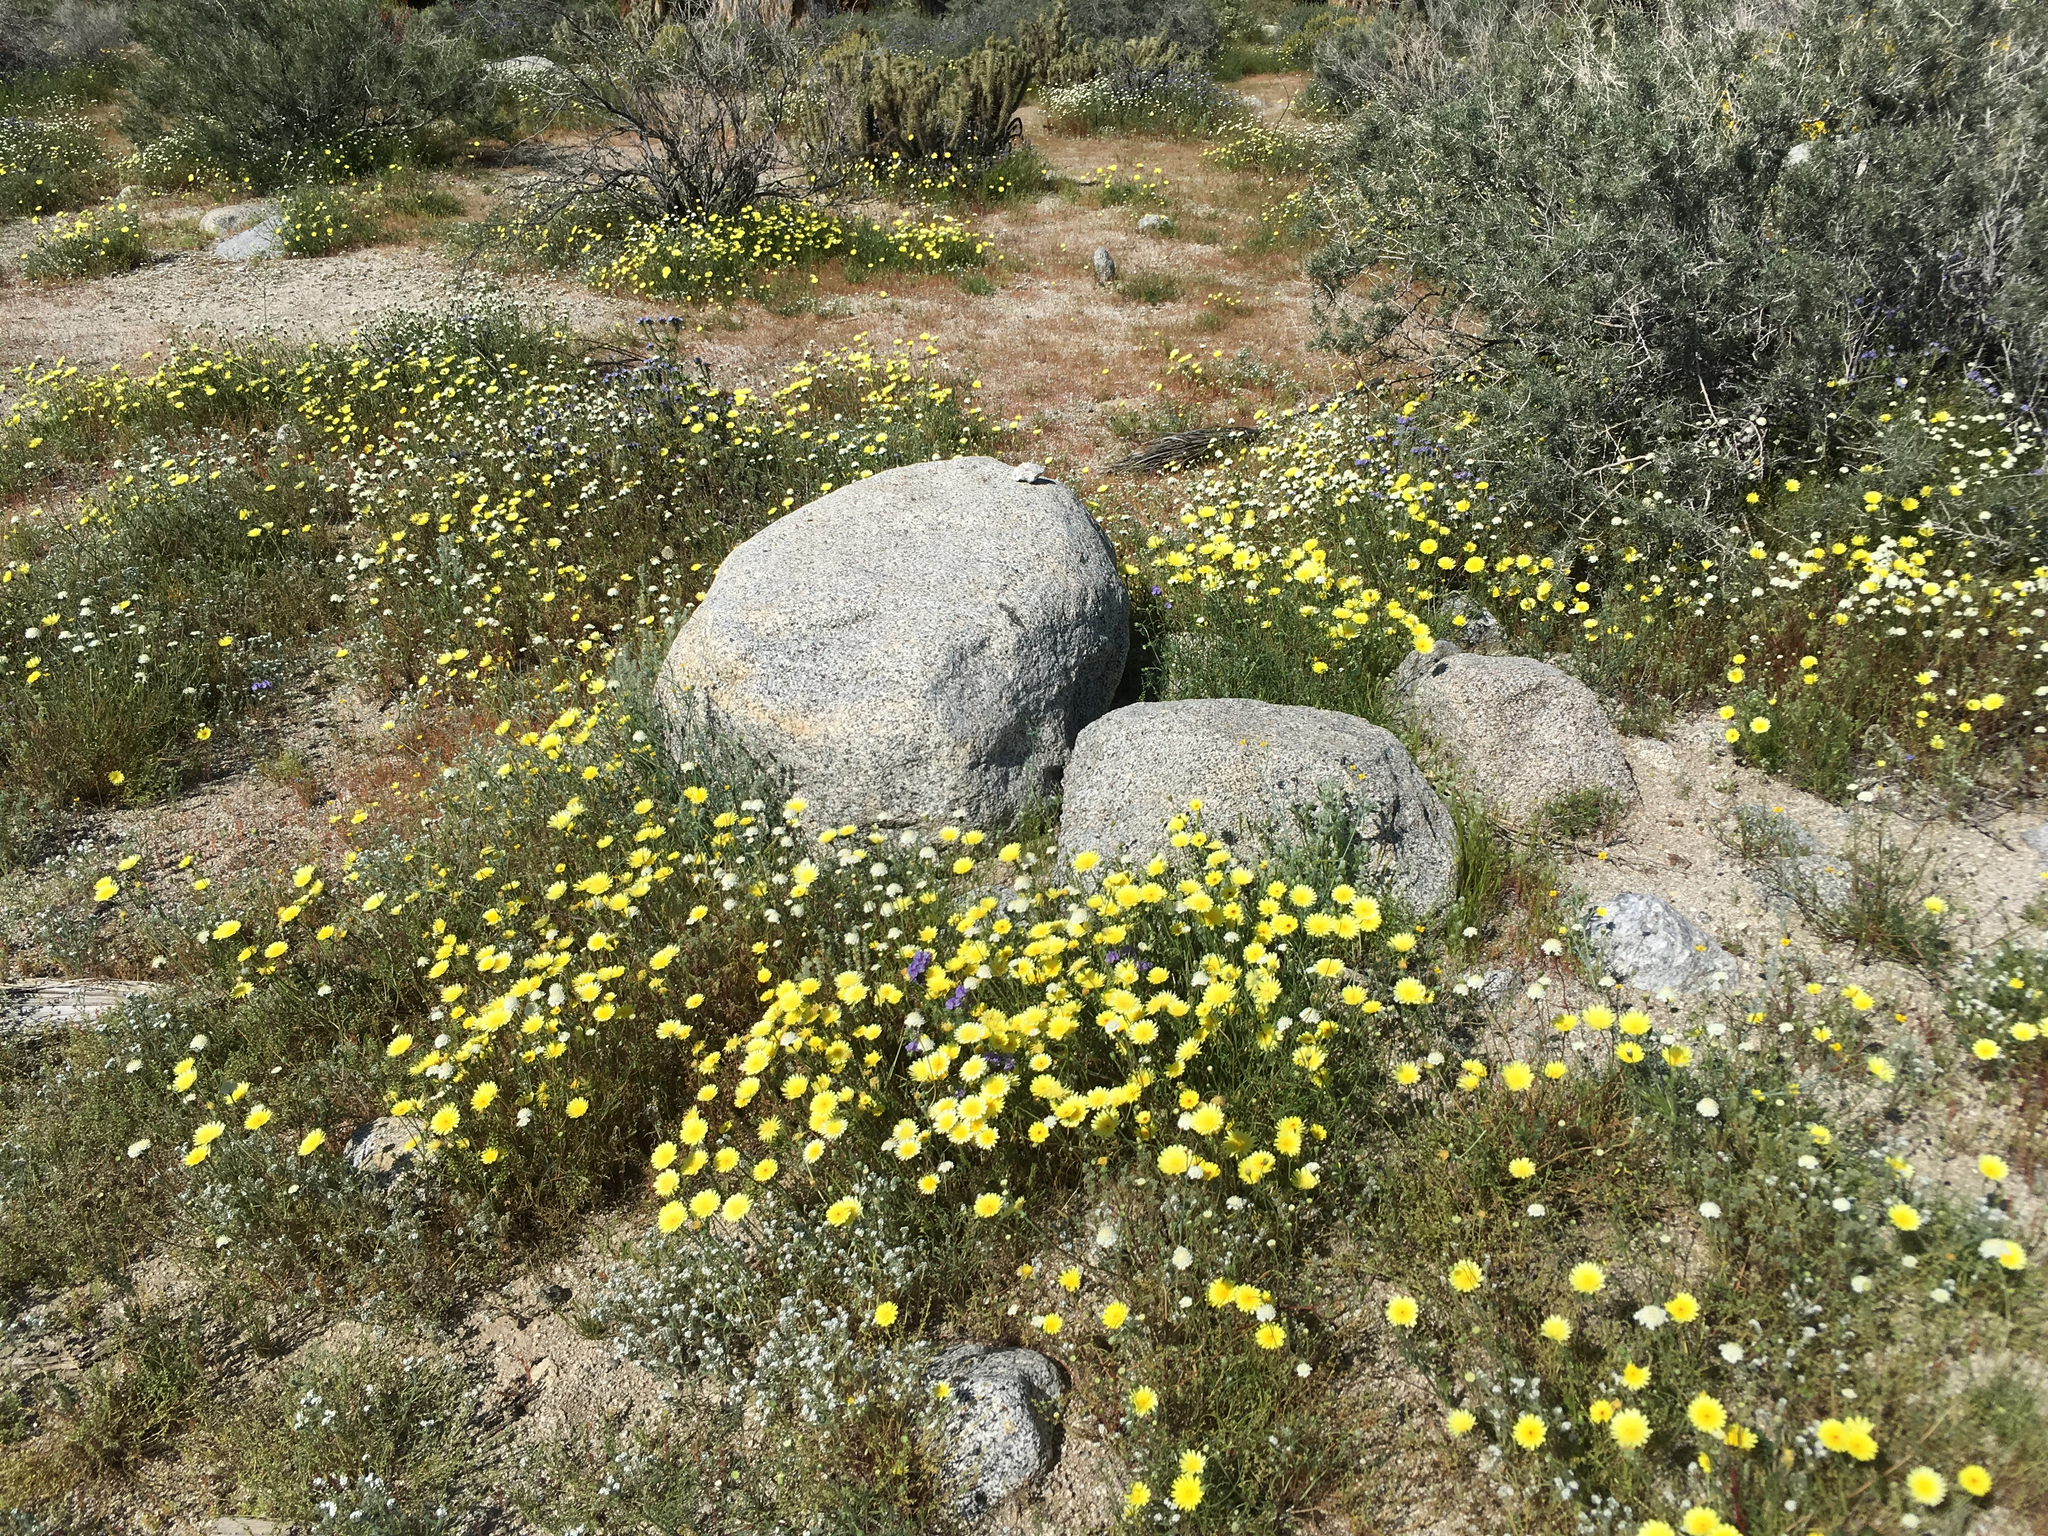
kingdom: Plantae
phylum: Tracheophyta
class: Magnoliopsida
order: Asterales
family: Asteraceae
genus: Malacothrix
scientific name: Malacothrix glabrata
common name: Smooth desert-dandelion
